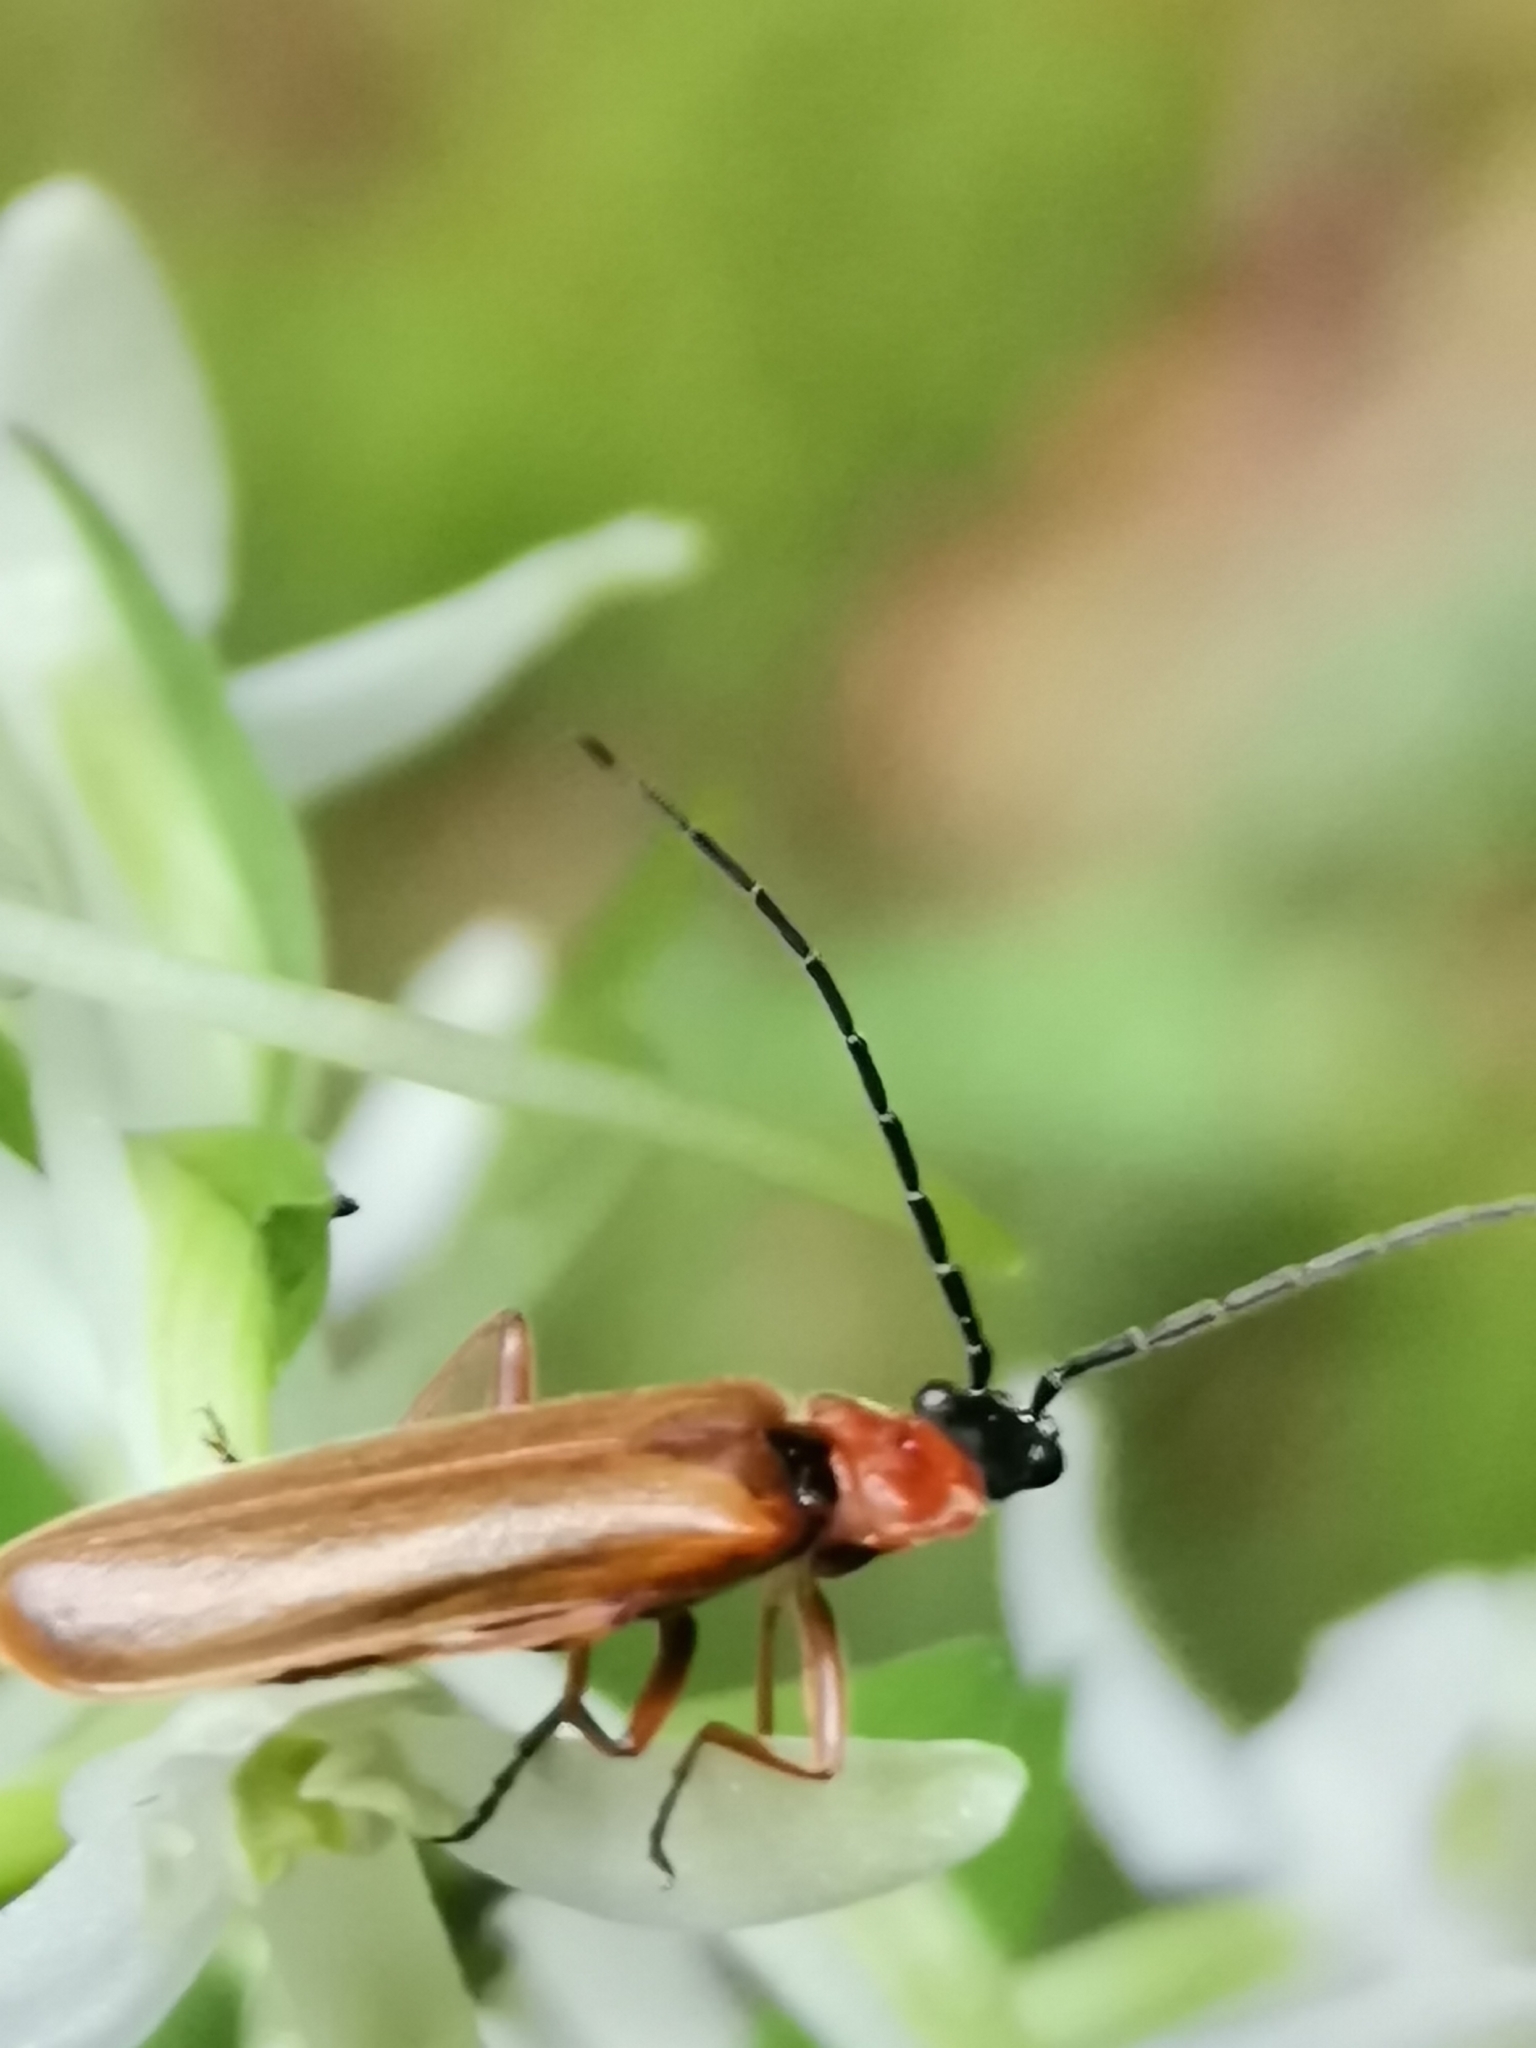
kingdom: Animalia
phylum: Arthropoda
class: Insecta
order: Coleoptera
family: Cantharidae
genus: Rhagonycha
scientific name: Rhagonycha nigriceps
